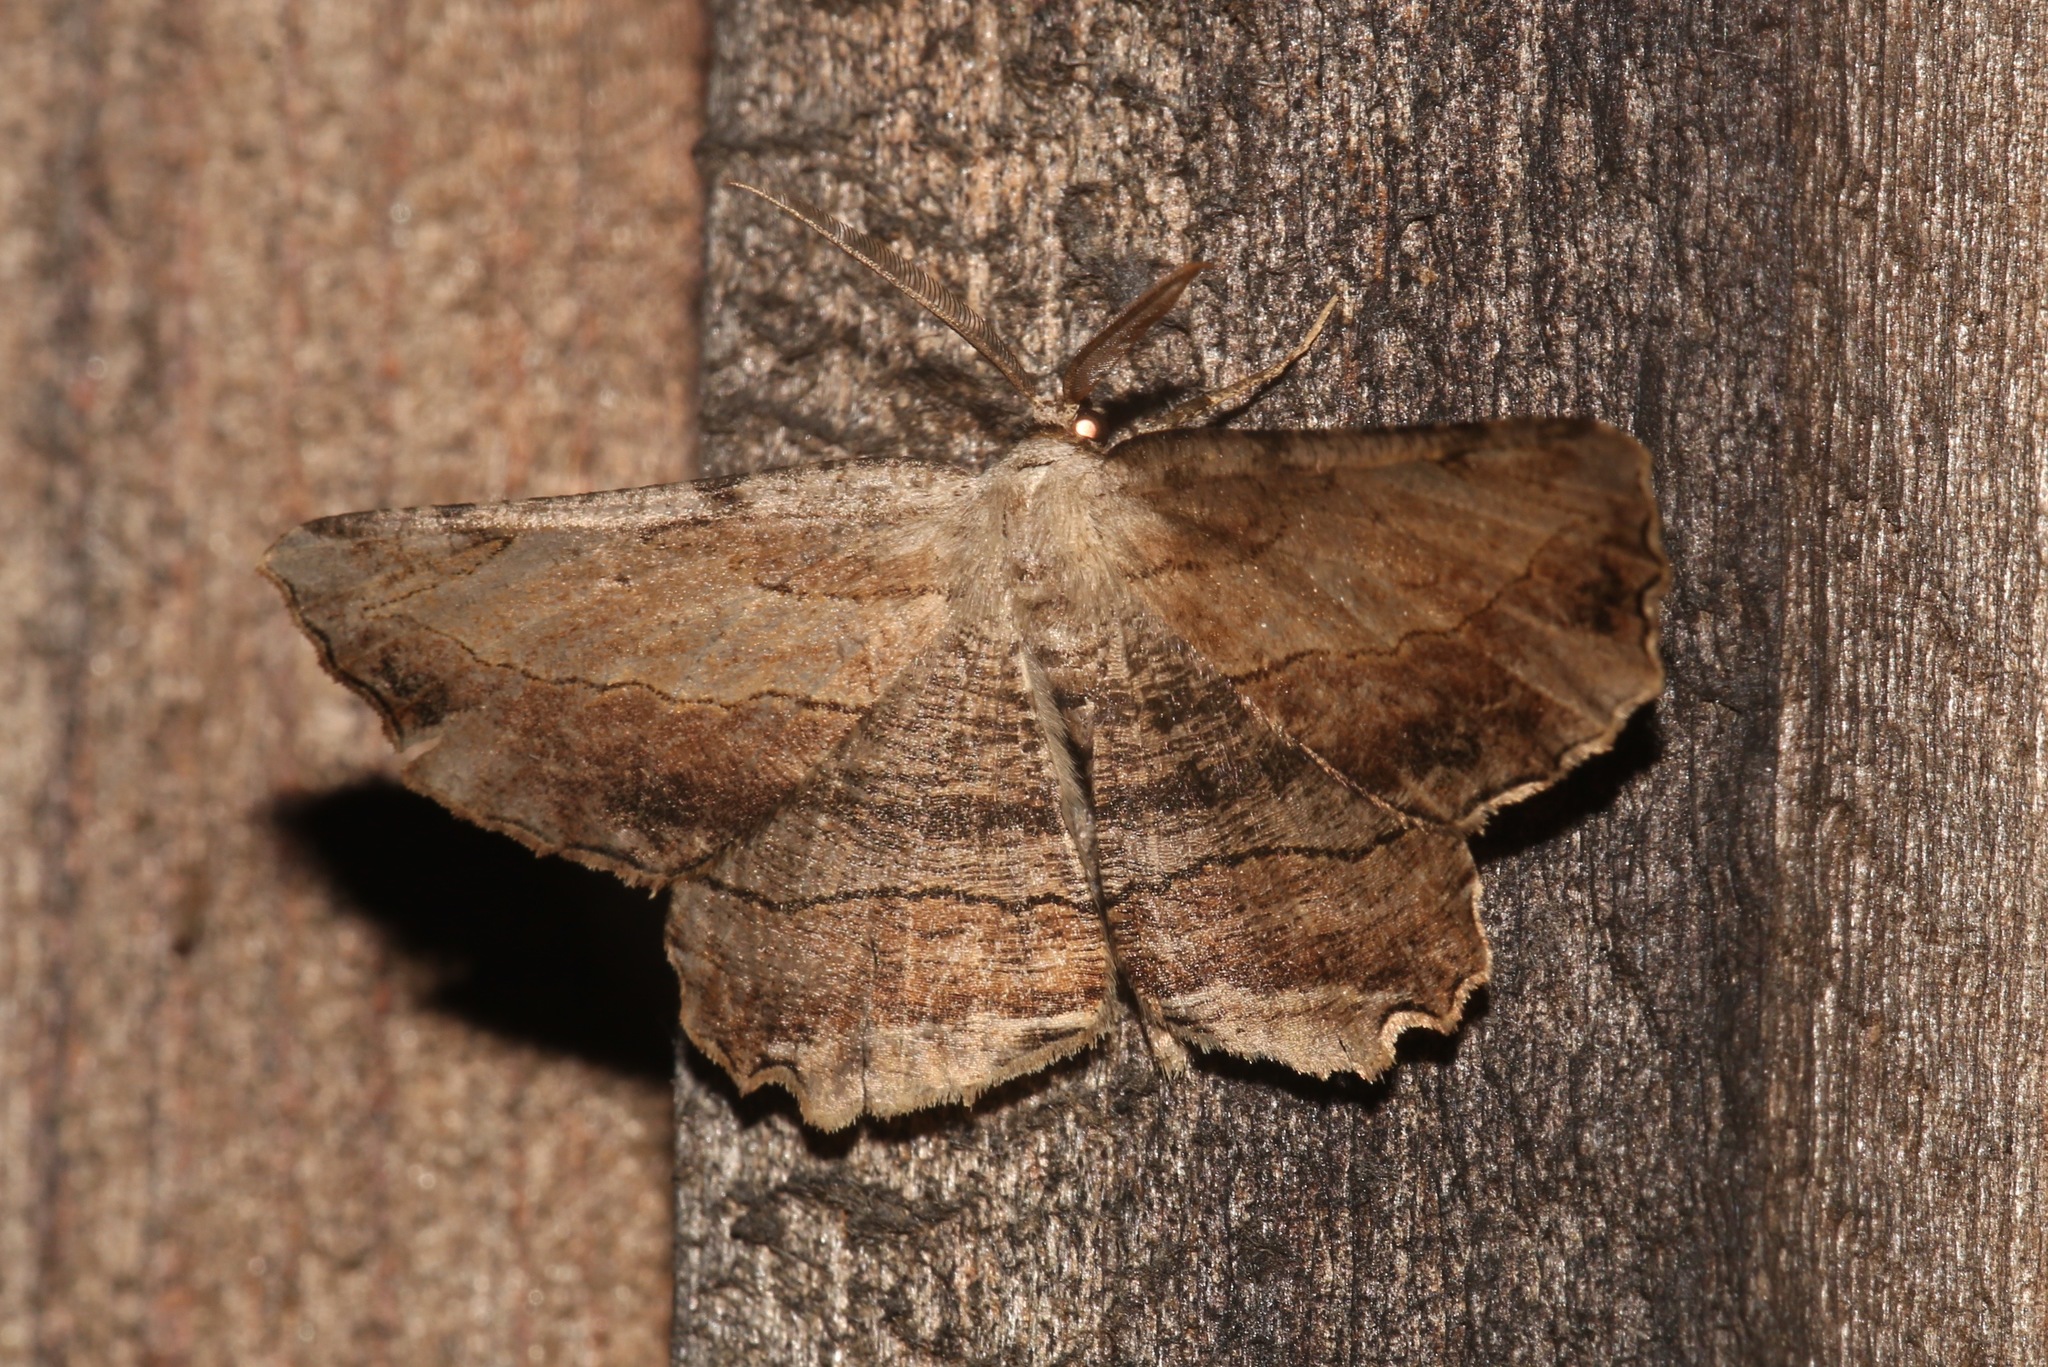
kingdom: Animalia
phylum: Arthropoda
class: Insecta
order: Lepidoptera
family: Geometridae
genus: Lytrosis
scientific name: Lytrosis unitaria
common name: Common lytrosis
